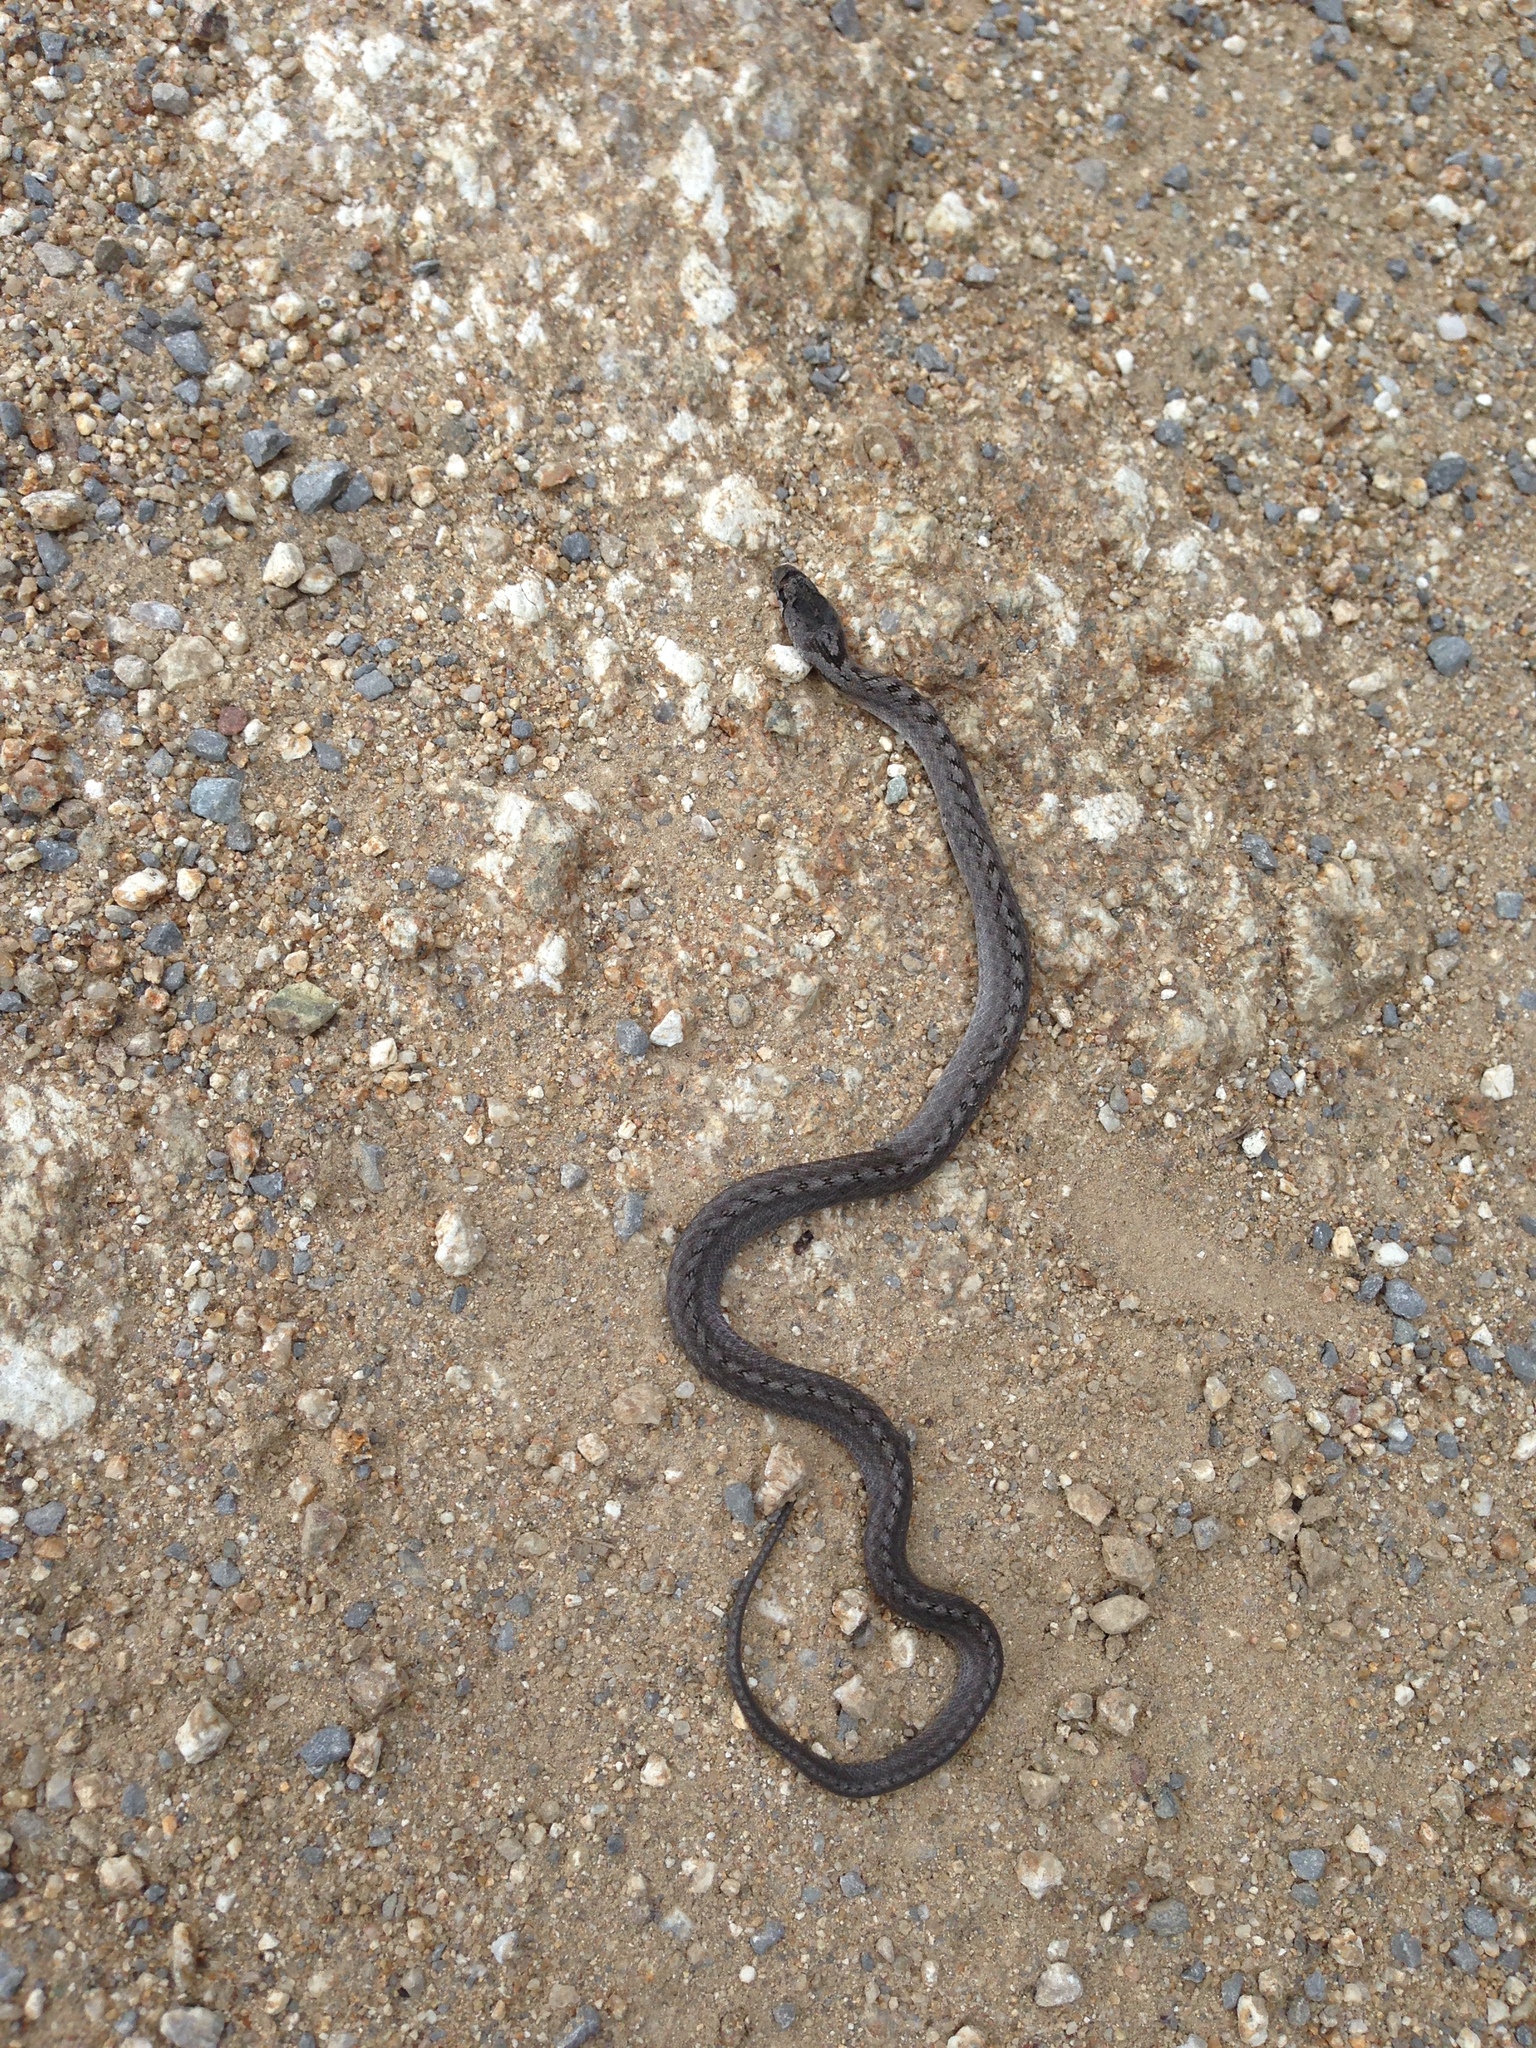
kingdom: Animalia
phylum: Chordata
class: Squamata
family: Colubridae
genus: Coronella
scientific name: Coronella girondica
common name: Southern smooth snake
